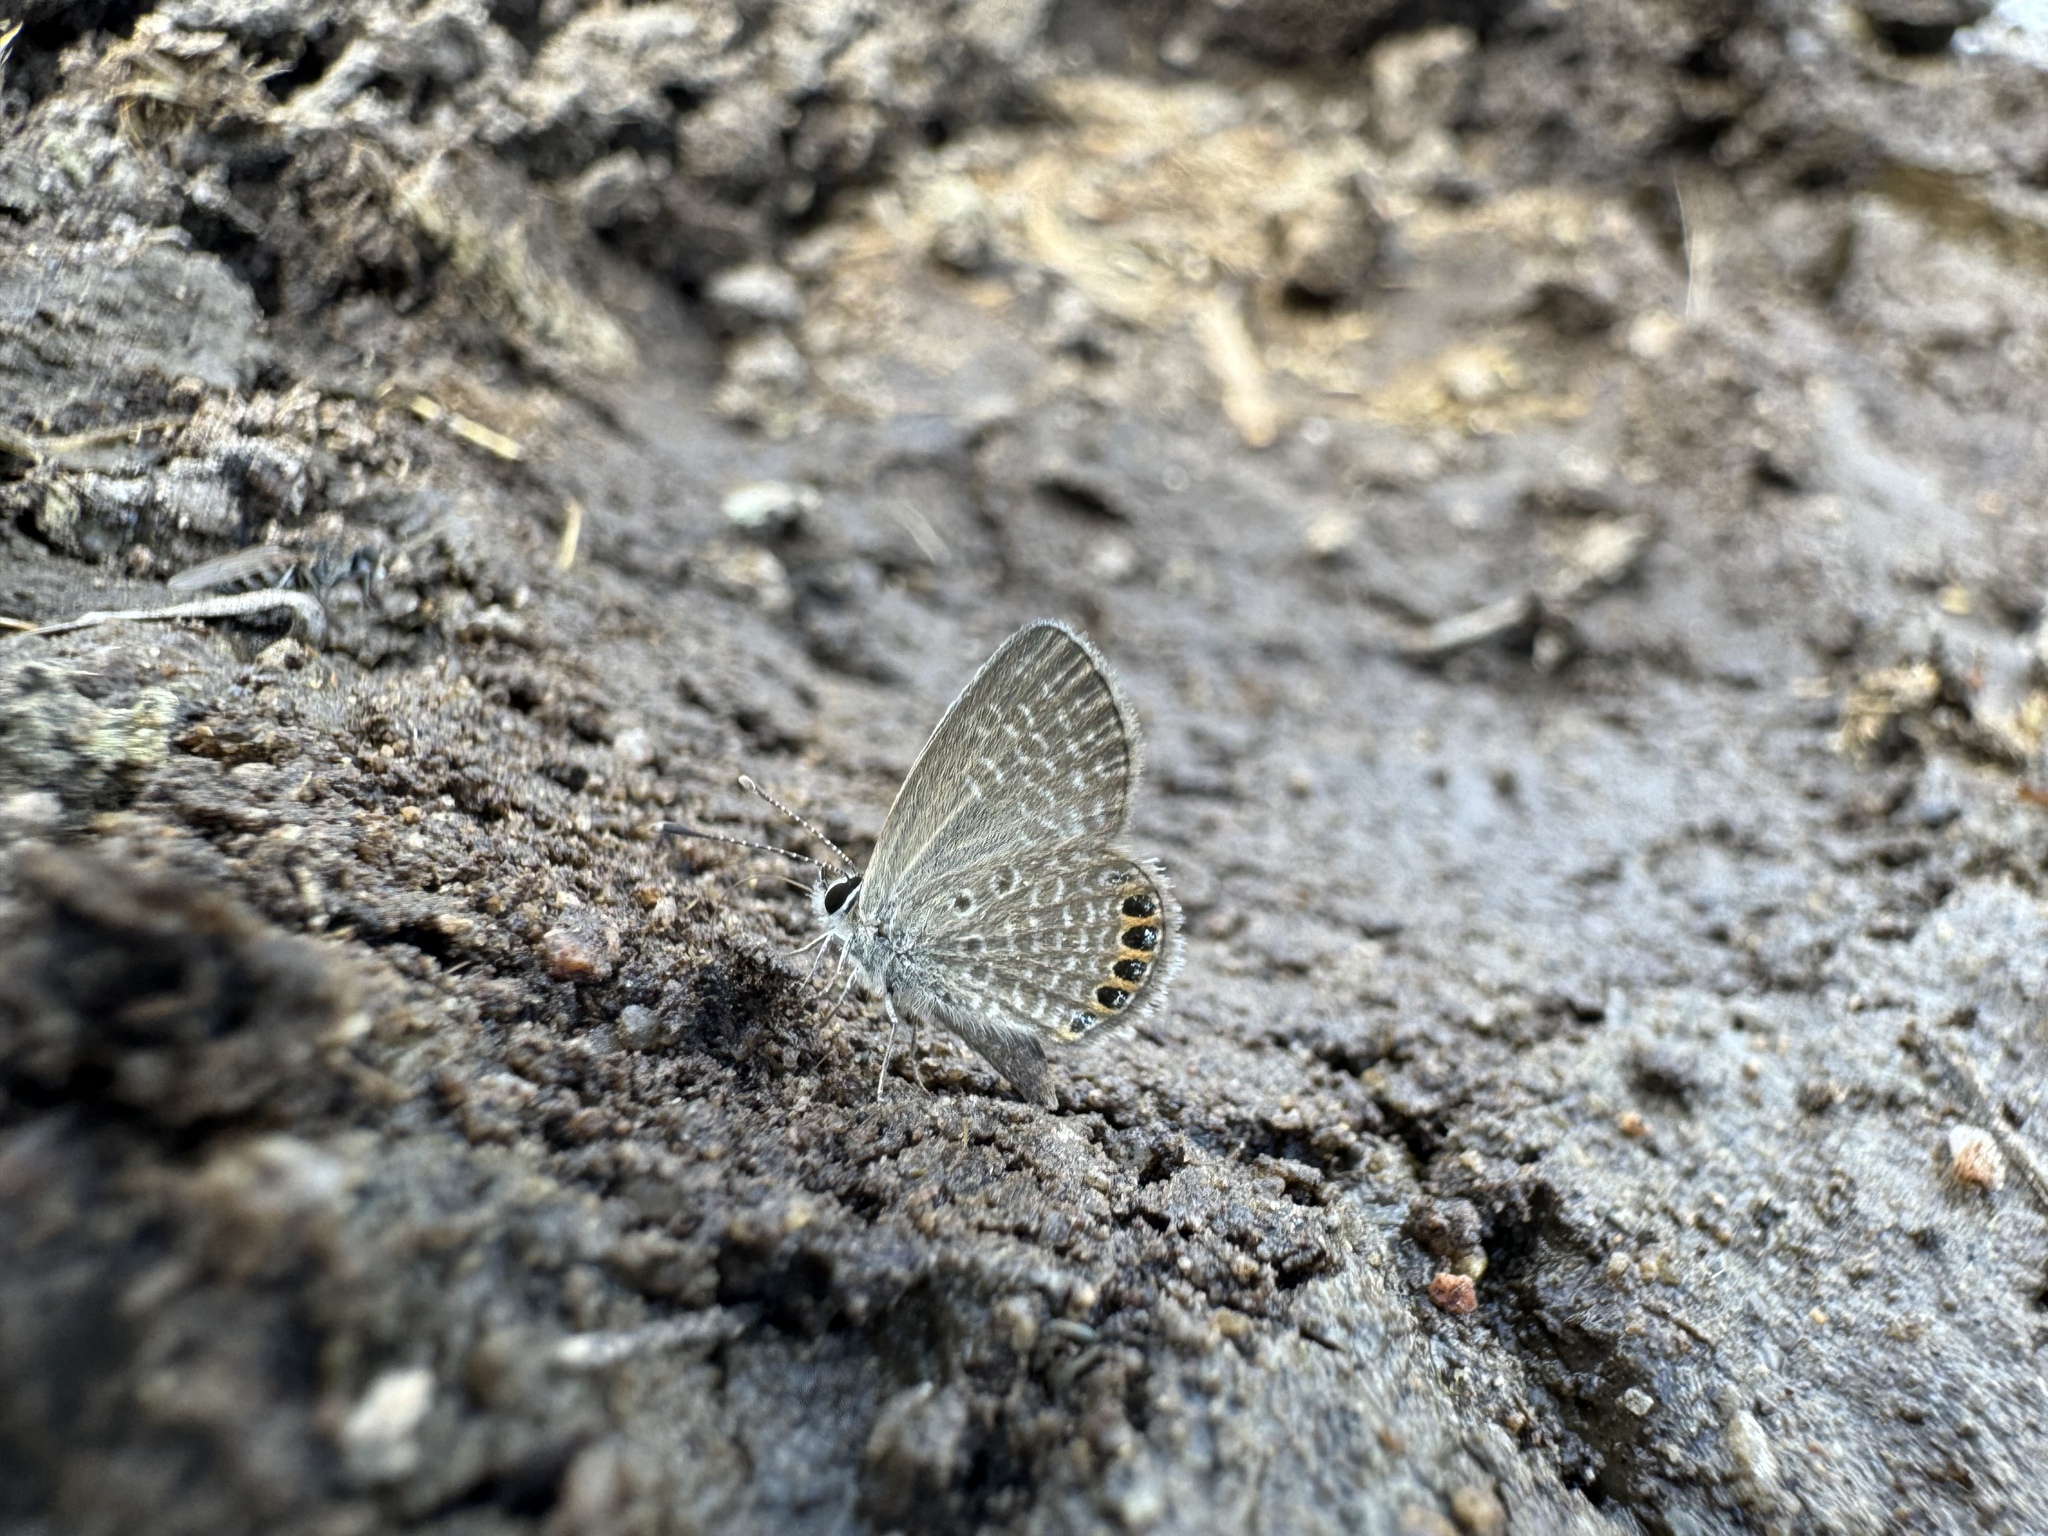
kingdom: Animalia
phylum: Arthropoda
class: Insecta
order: Lepidoptera
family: Lycaenidae
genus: Freyeria
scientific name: Freyeria putli
